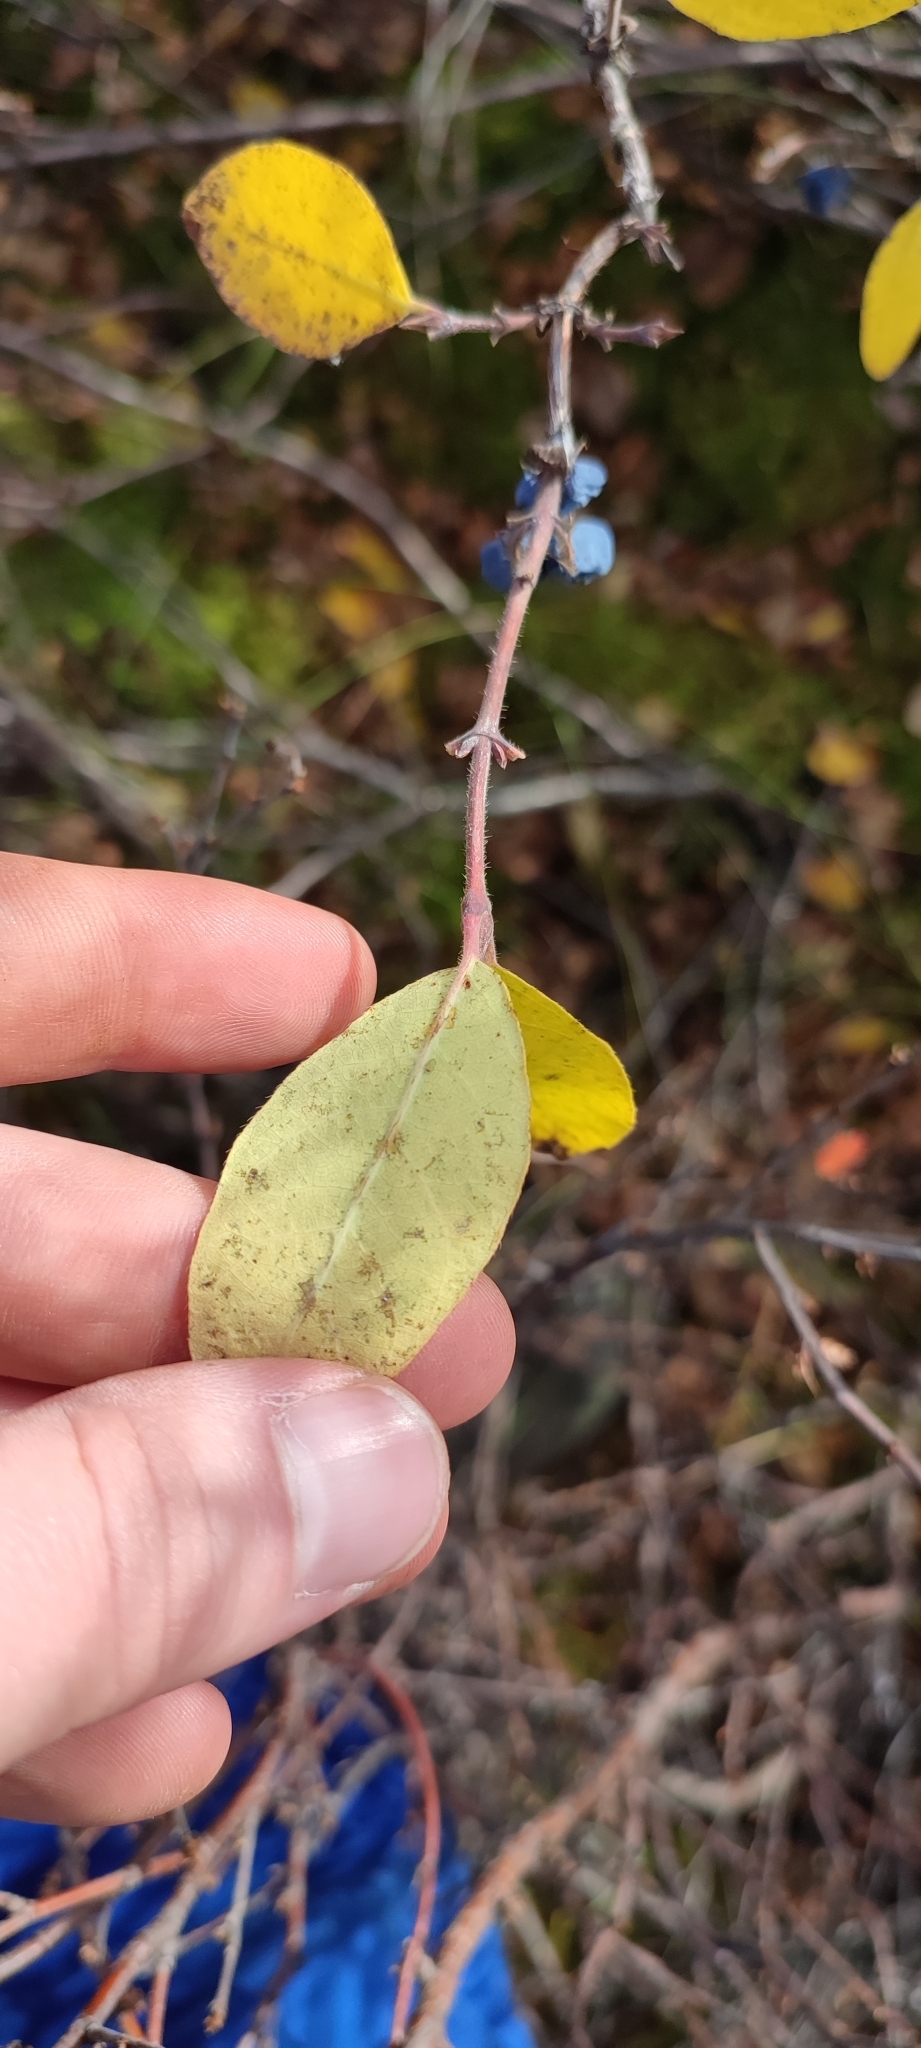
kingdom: Plantae
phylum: Tracheophyta
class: Magnoliopsida
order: Dipsacales
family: Caprifoliaceae
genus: Lonicera
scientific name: Lonicera caerulea
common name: Blue honeysuckle
